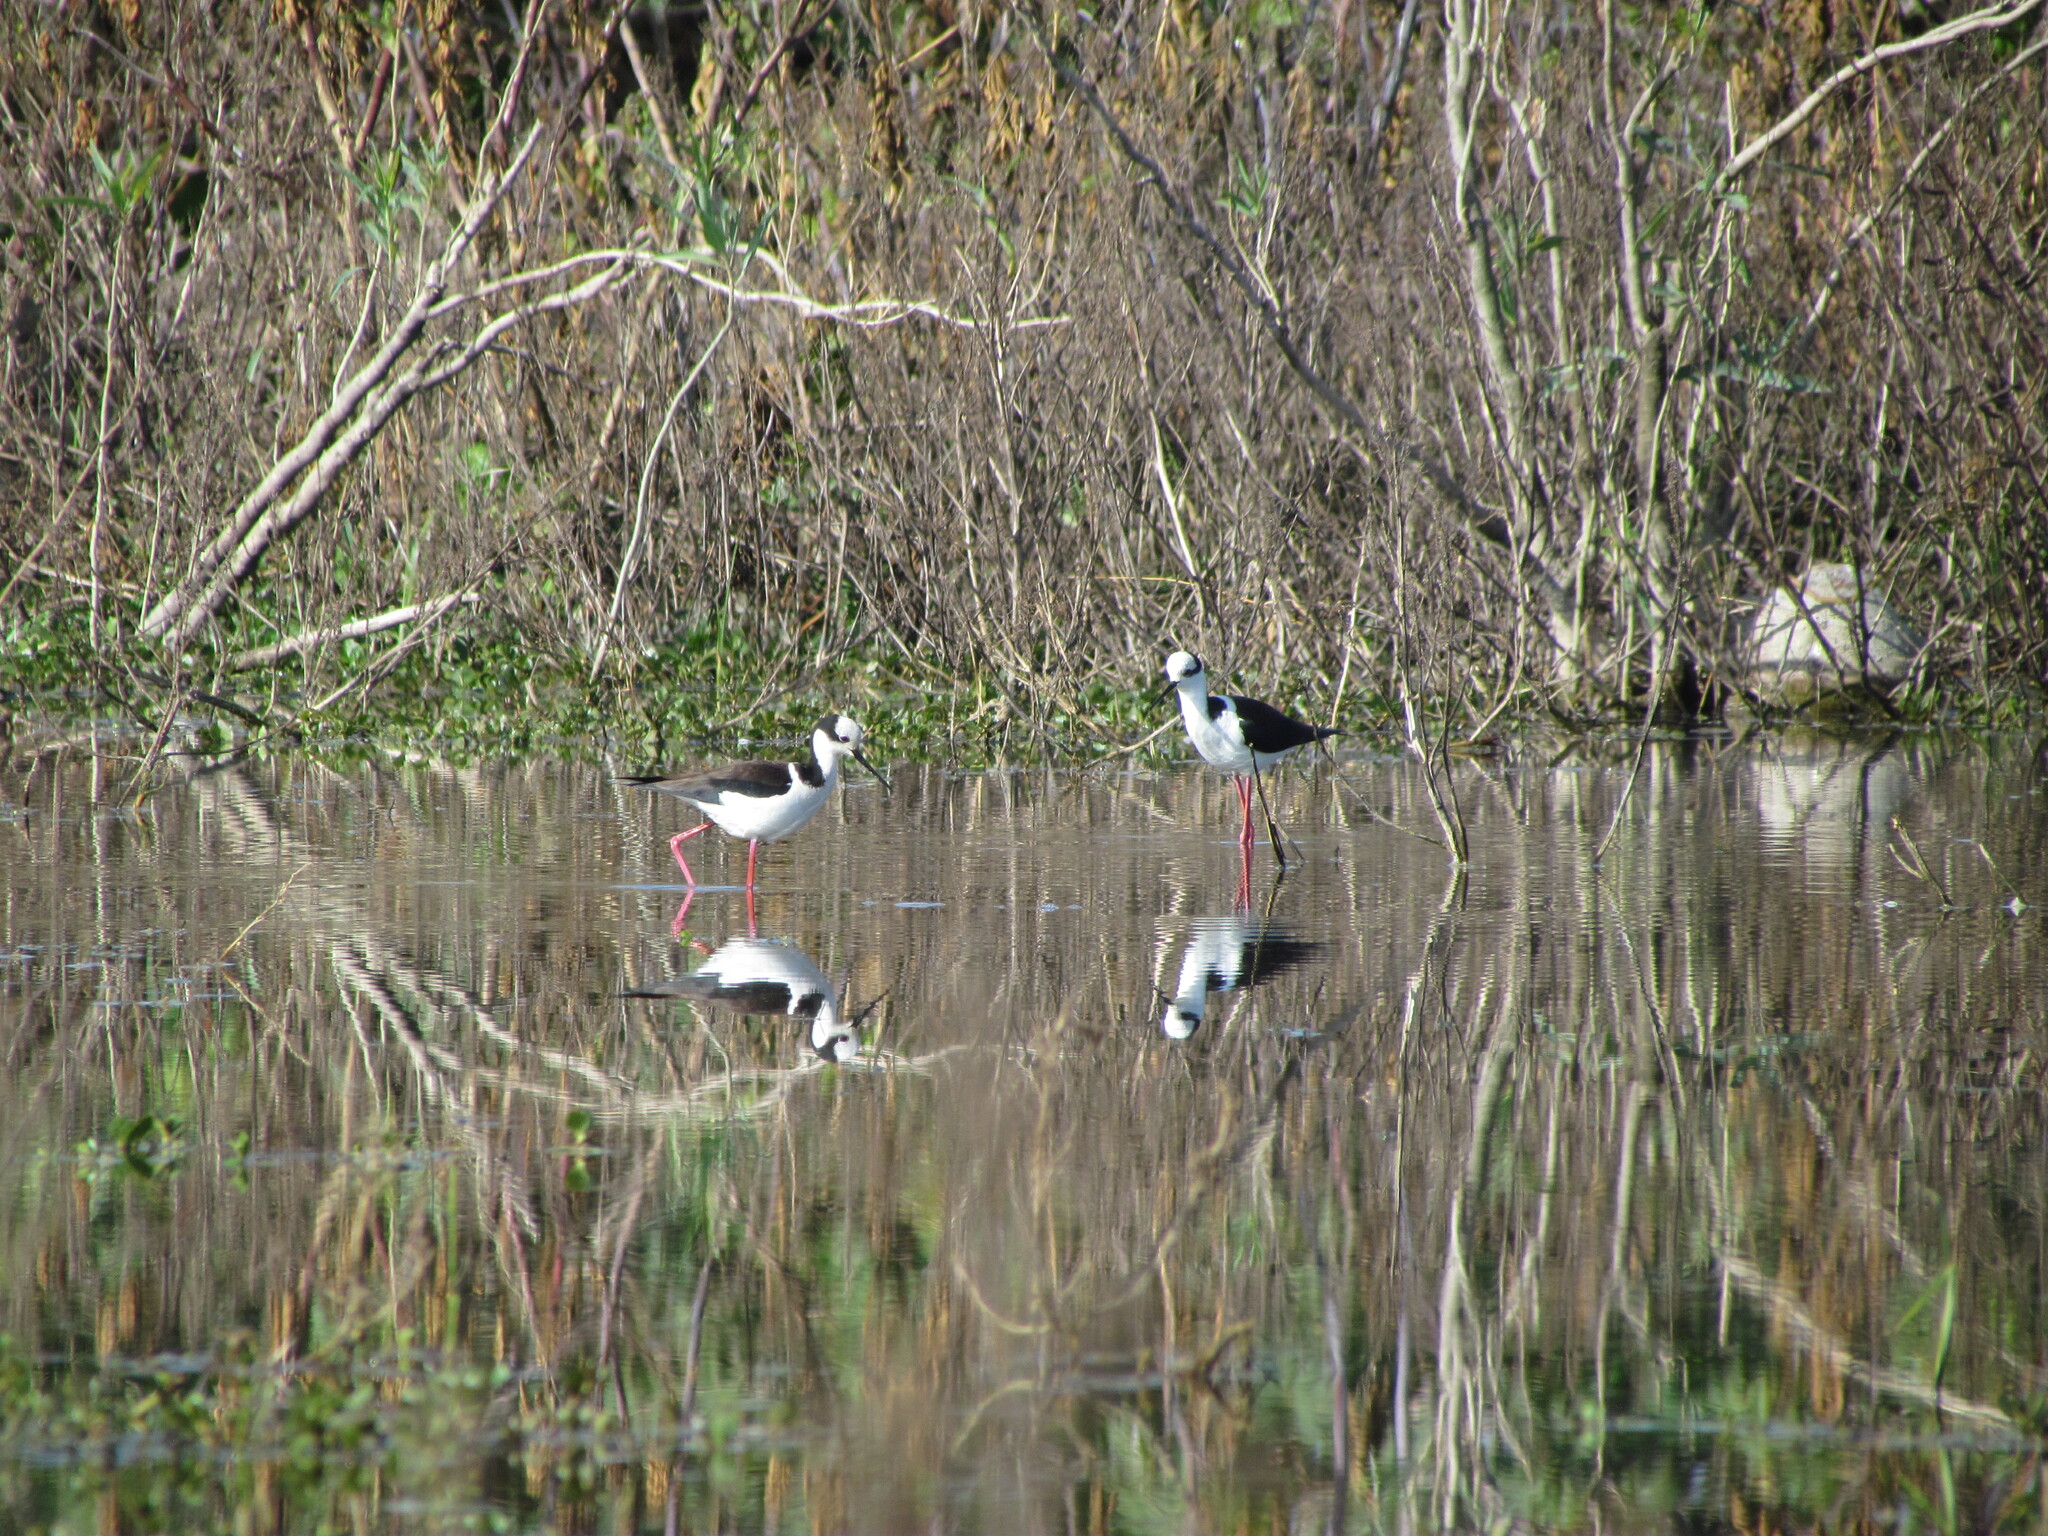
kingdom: Animalia
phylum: Chordata
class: Aves
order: Charadriiformes
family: Recurvirostridae
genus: Himantopus
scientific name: Himantopus mexicanus
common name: Black-necked stilt
